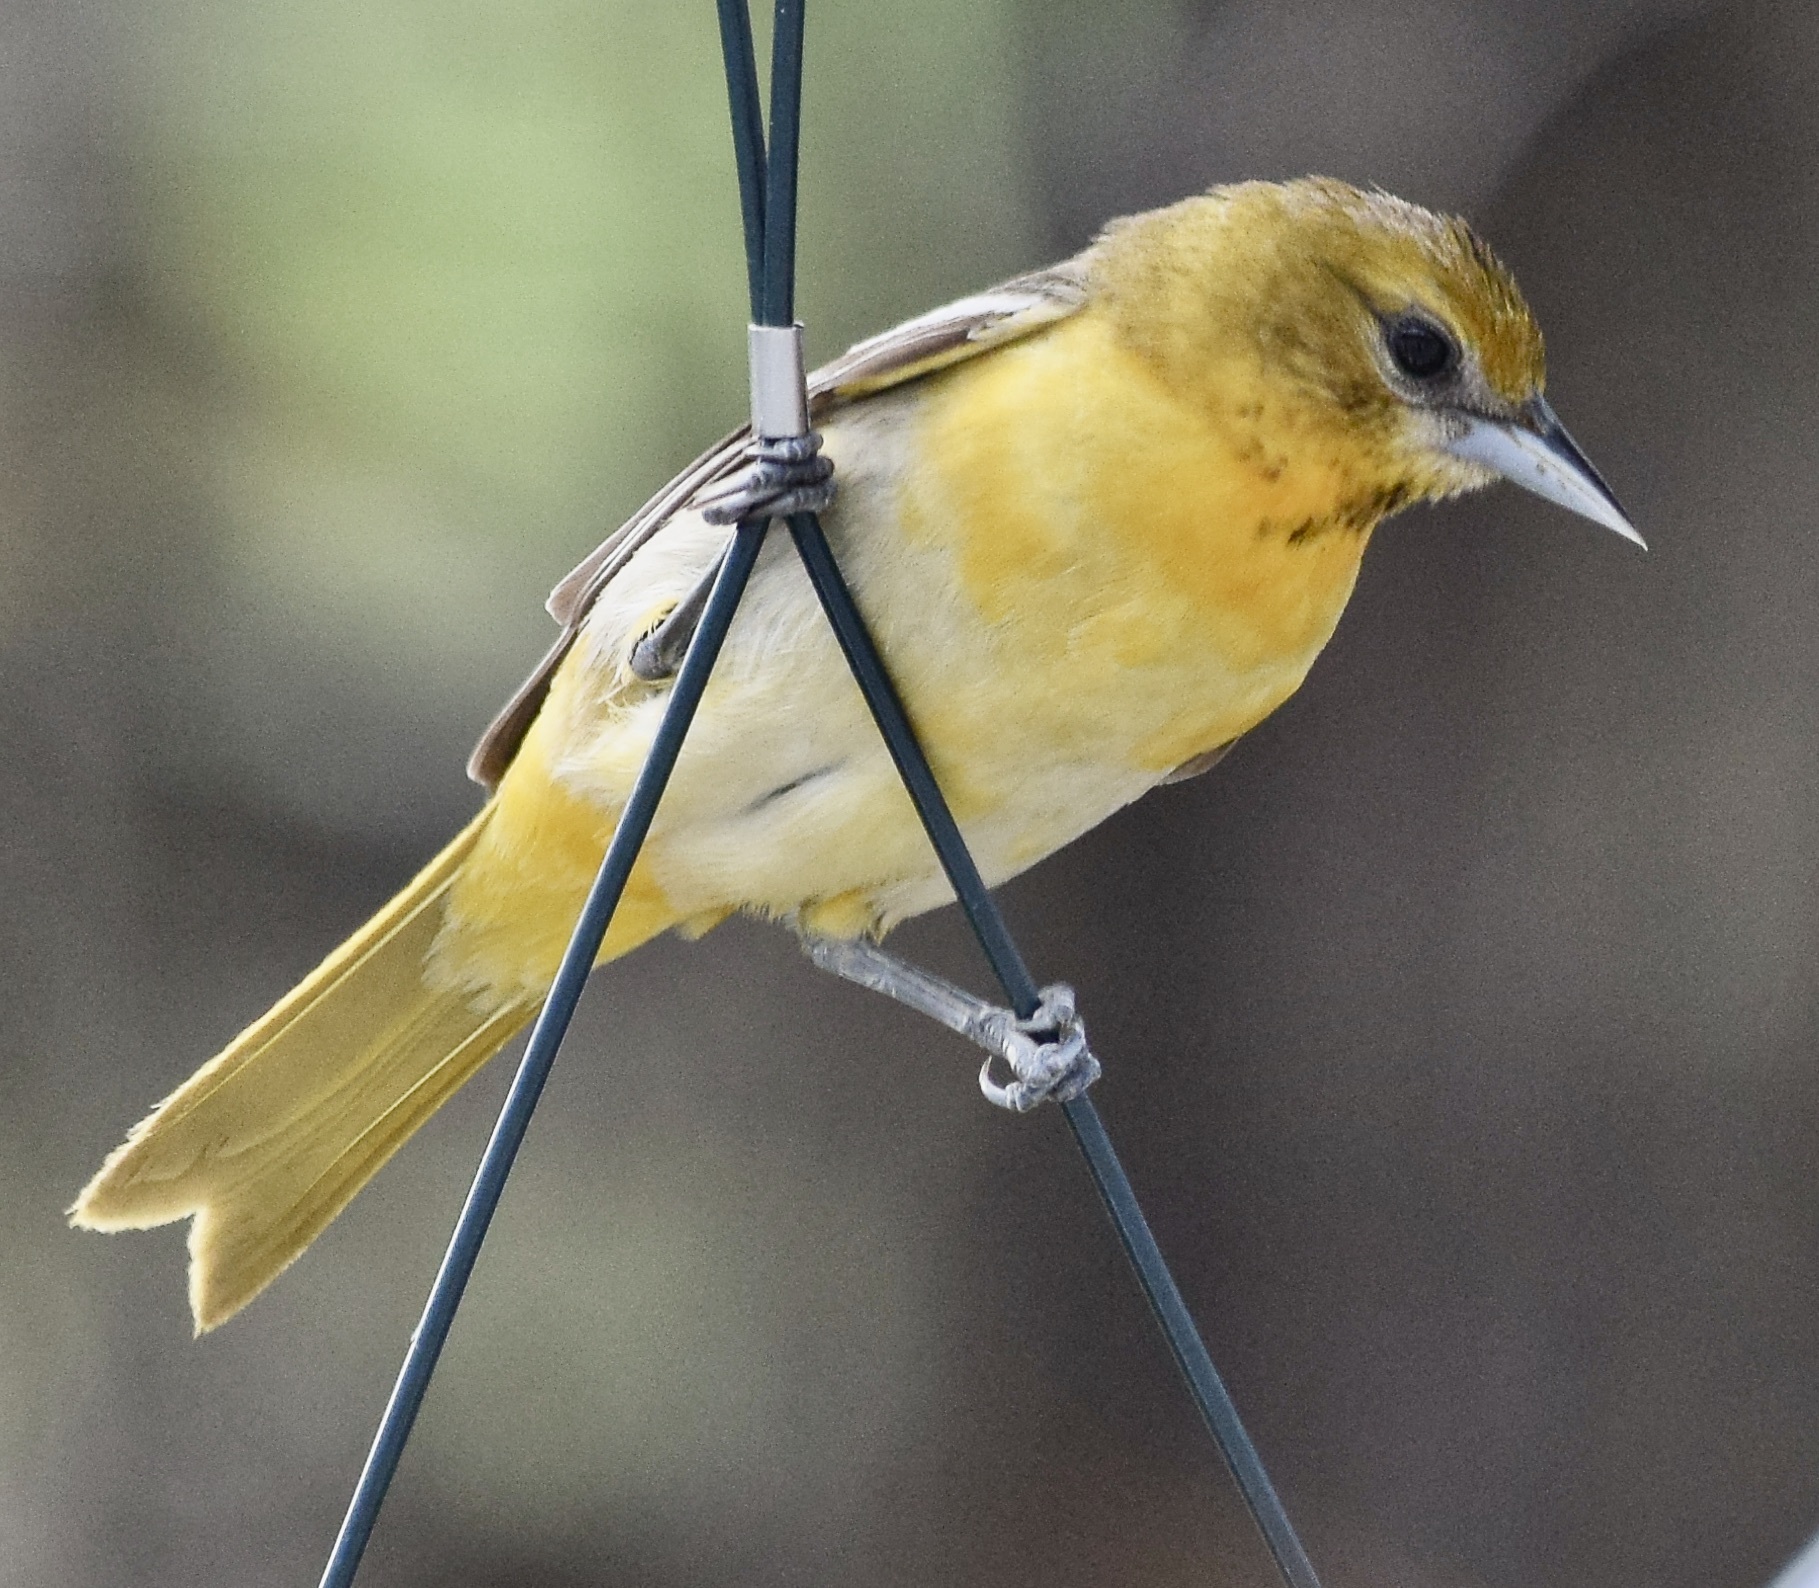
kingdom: Animalia
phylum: Chordata
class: Aves
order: Passeriformes
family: Icteridae
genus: Icterus
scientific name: Icterus galbula
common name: Baltimore oriole
